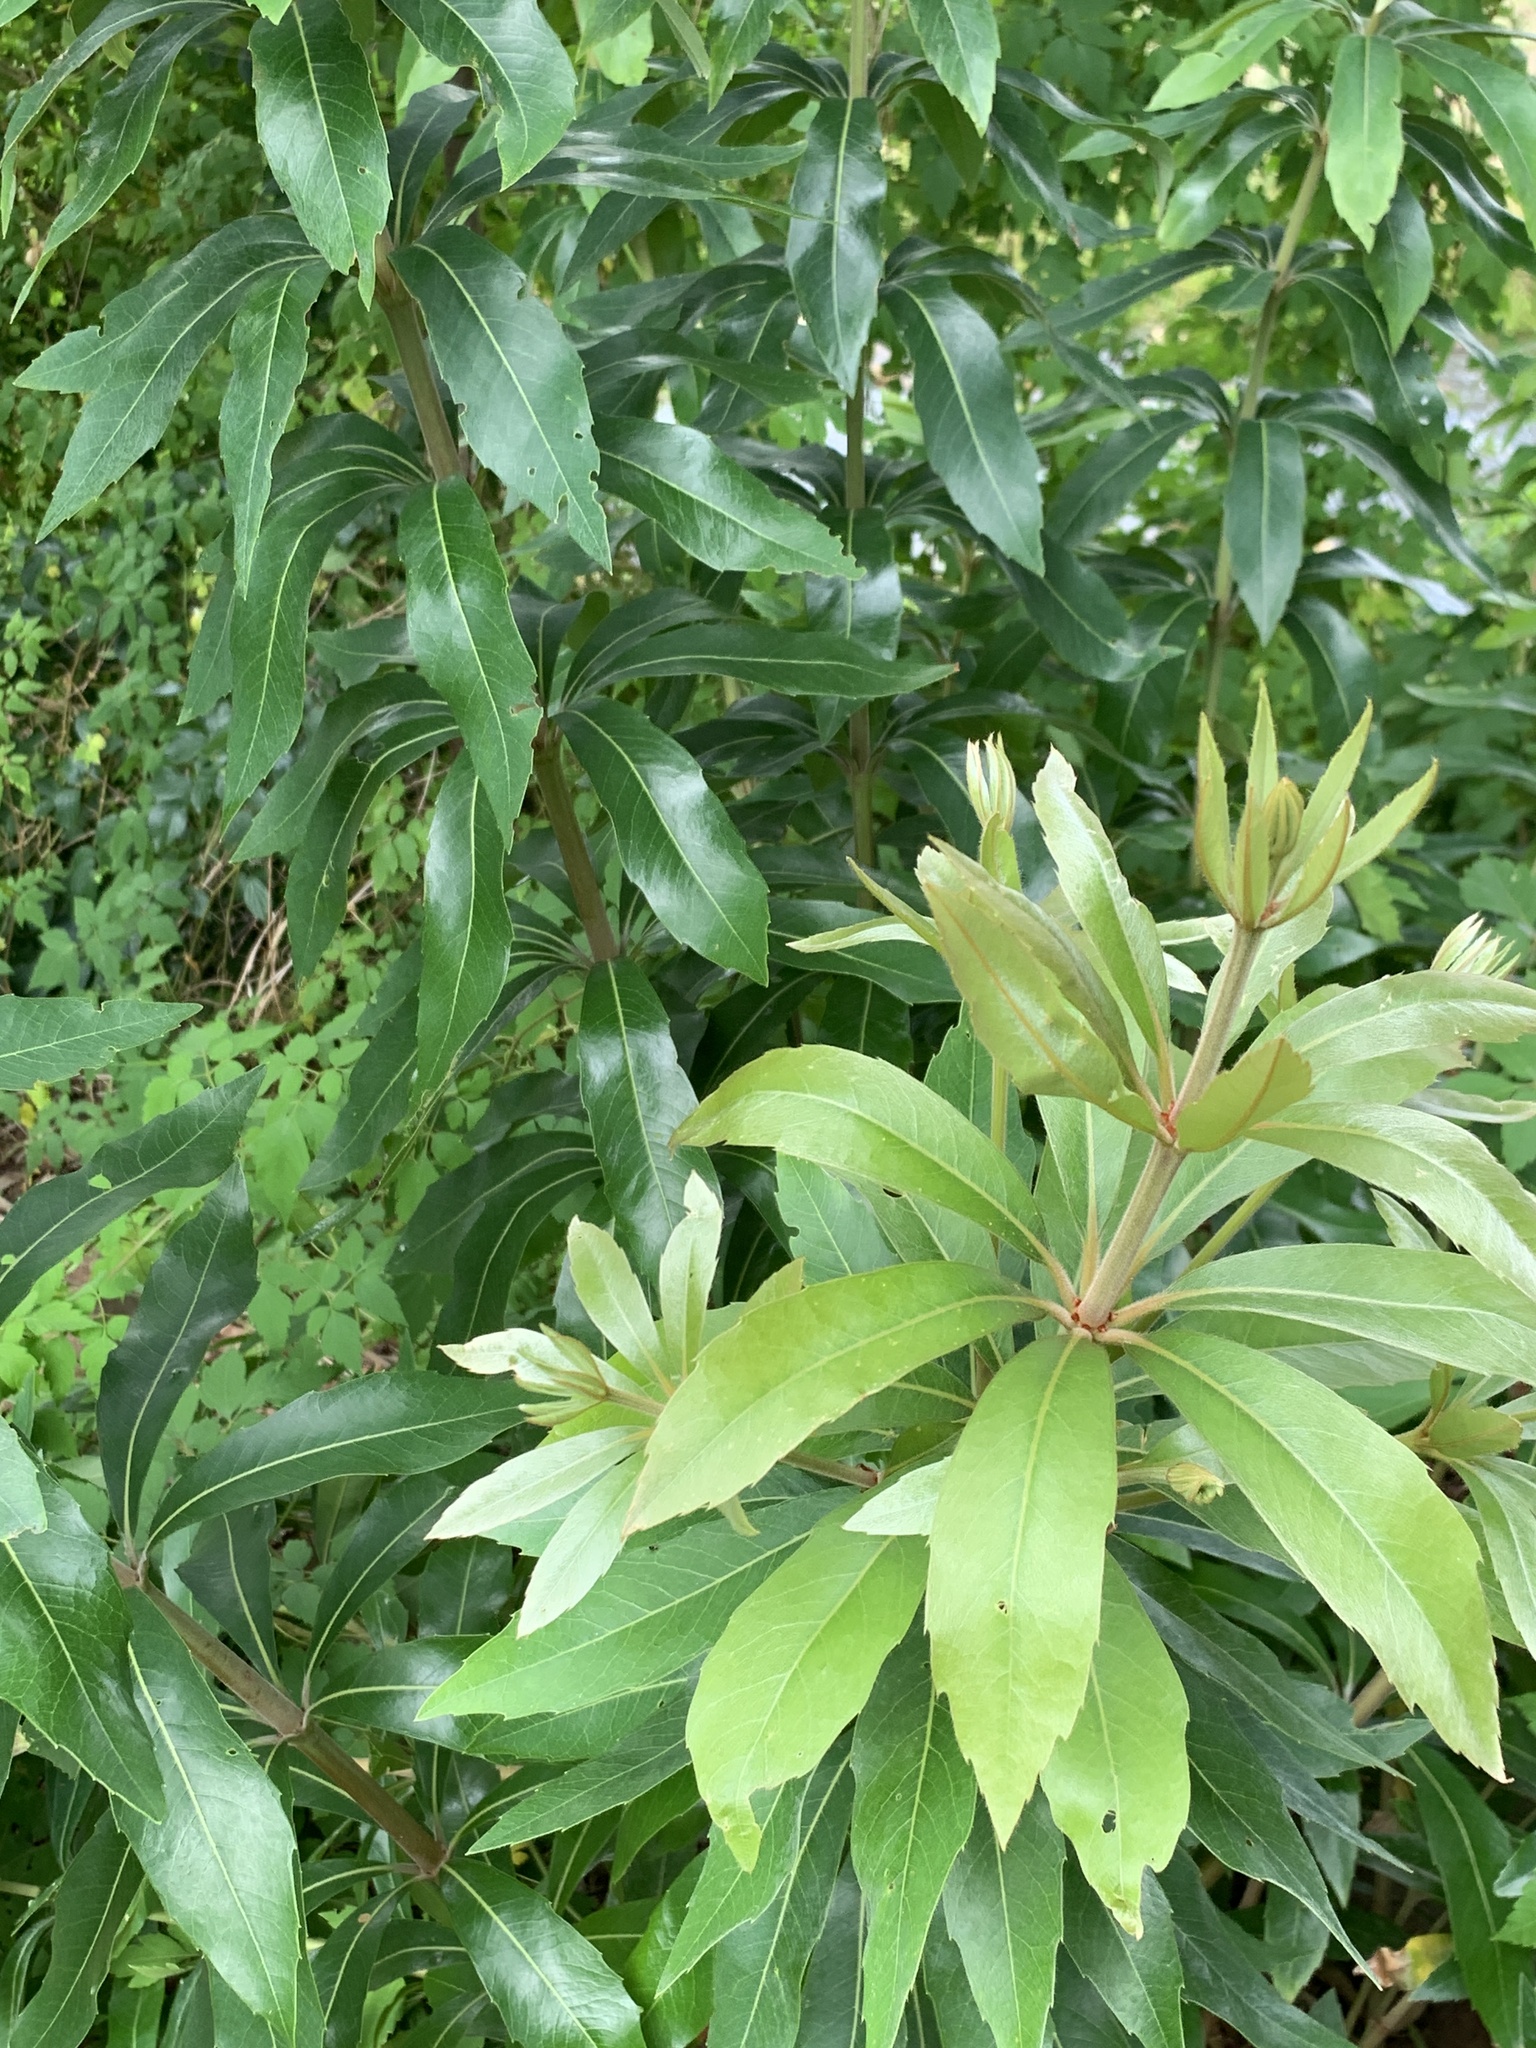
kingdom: Plantae
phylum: Tracheophyta
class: Magnoliopsida
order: Proteales
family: Proteaceae
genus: Brabejum
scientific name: Brabejum stellatifolium
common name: Wild almond
